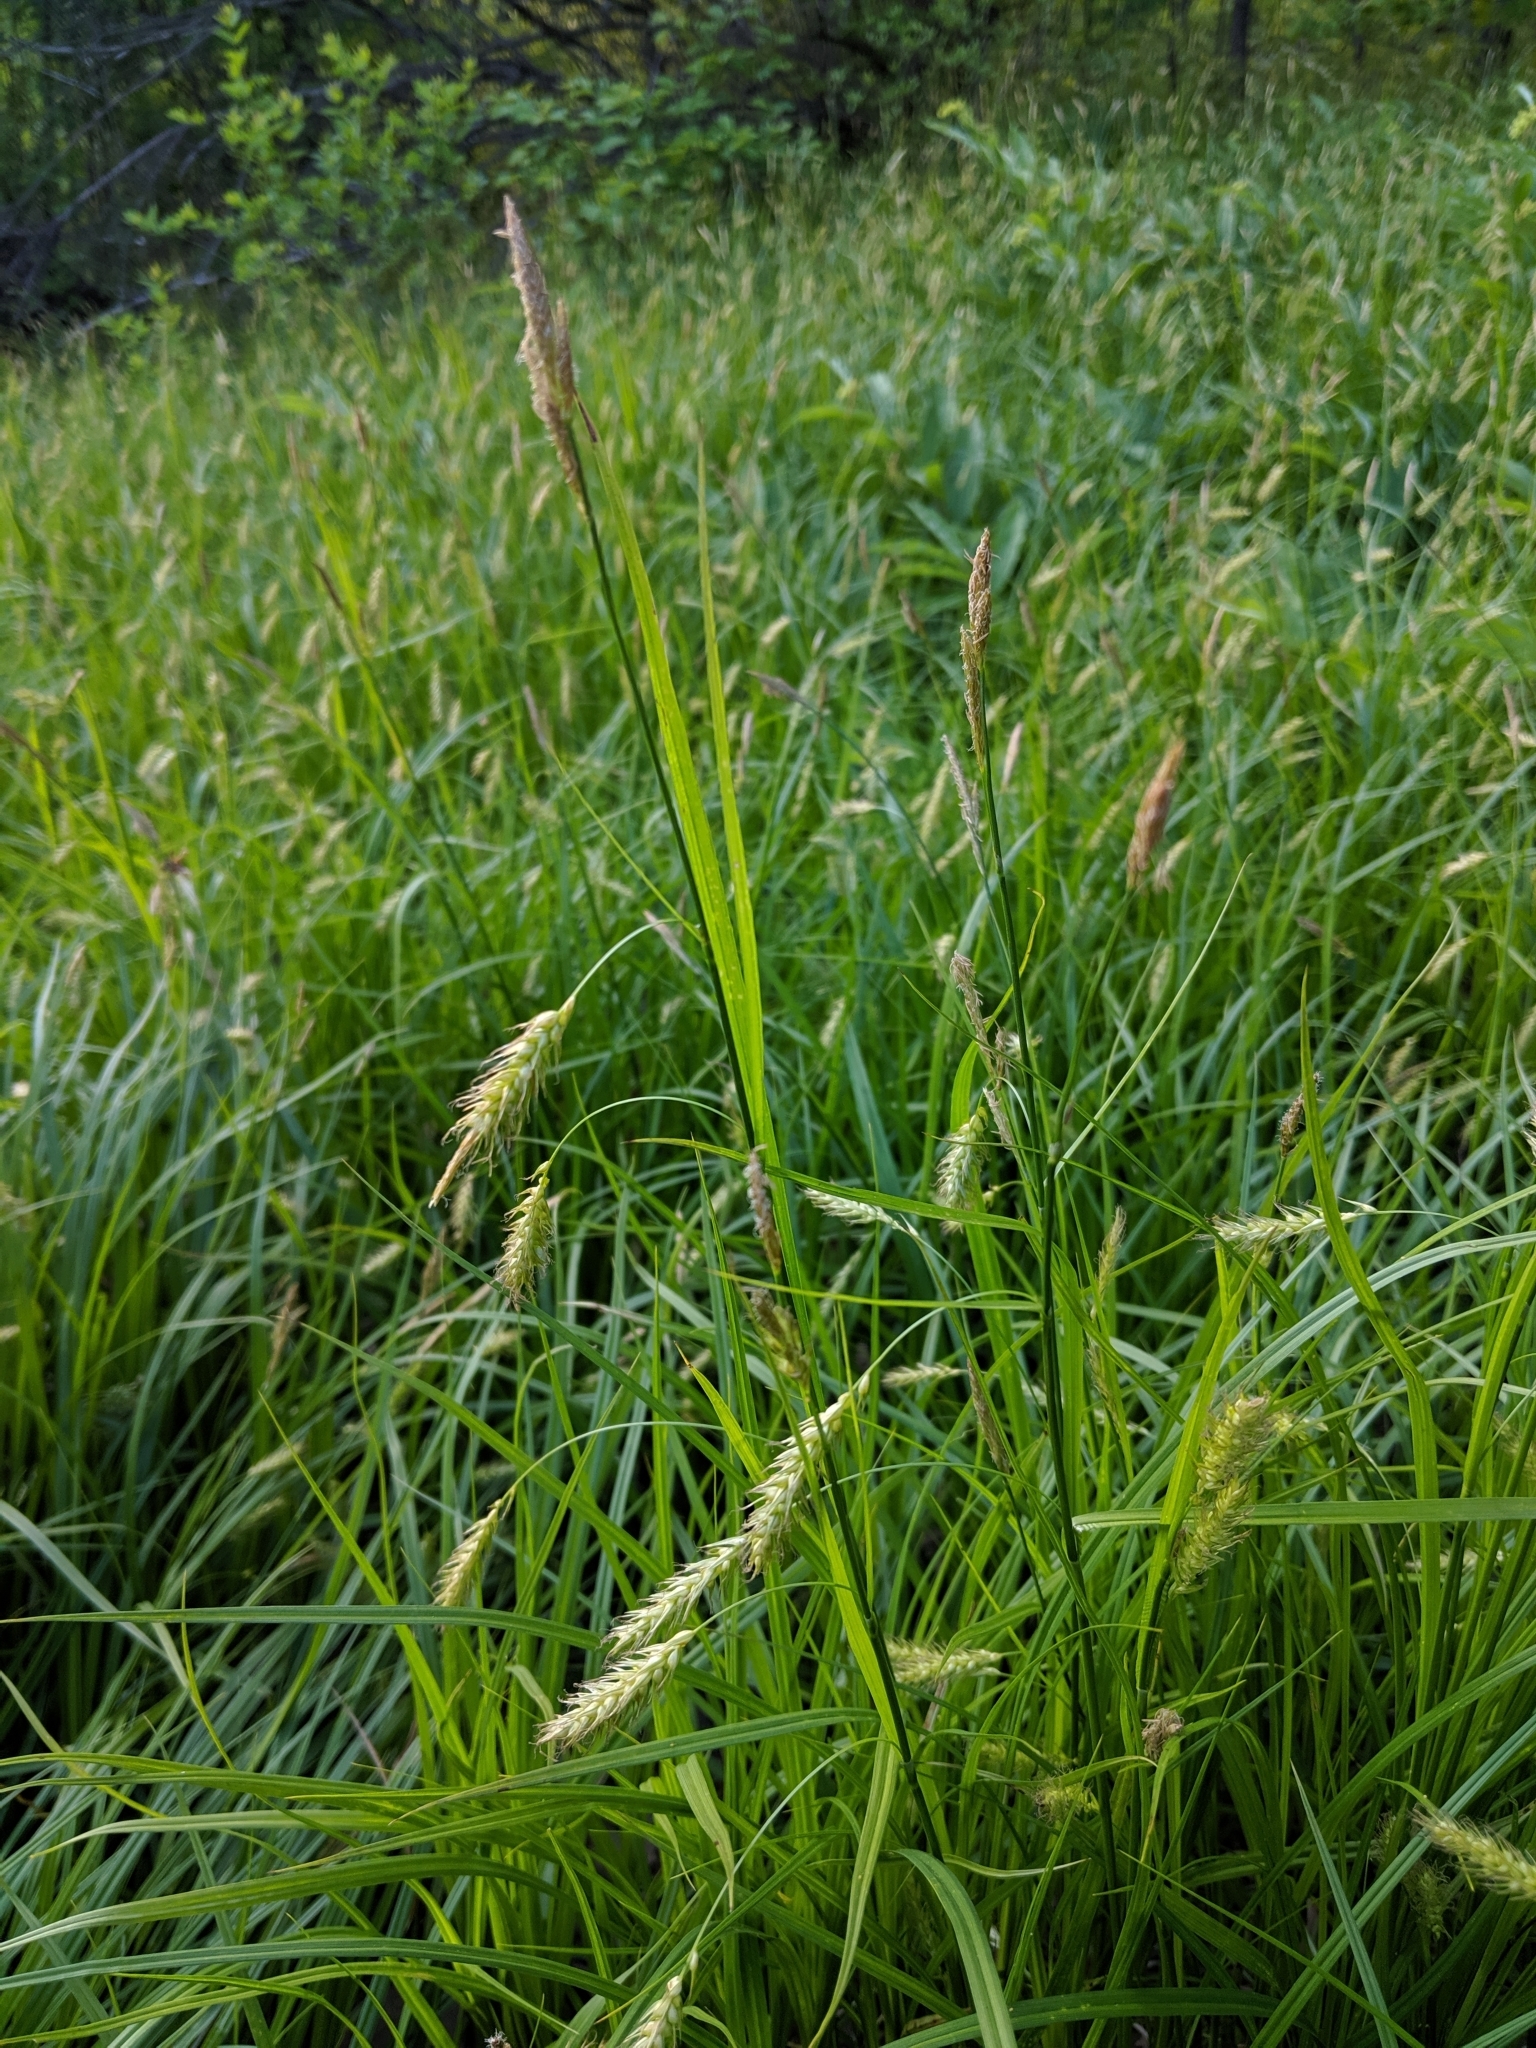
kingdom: Plantae
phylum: Tracheophyta
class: Liliopsida
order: Poales
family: Cyperaceae
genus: Carex
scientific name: Carex sprengelii
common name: Long-beaked sedge
